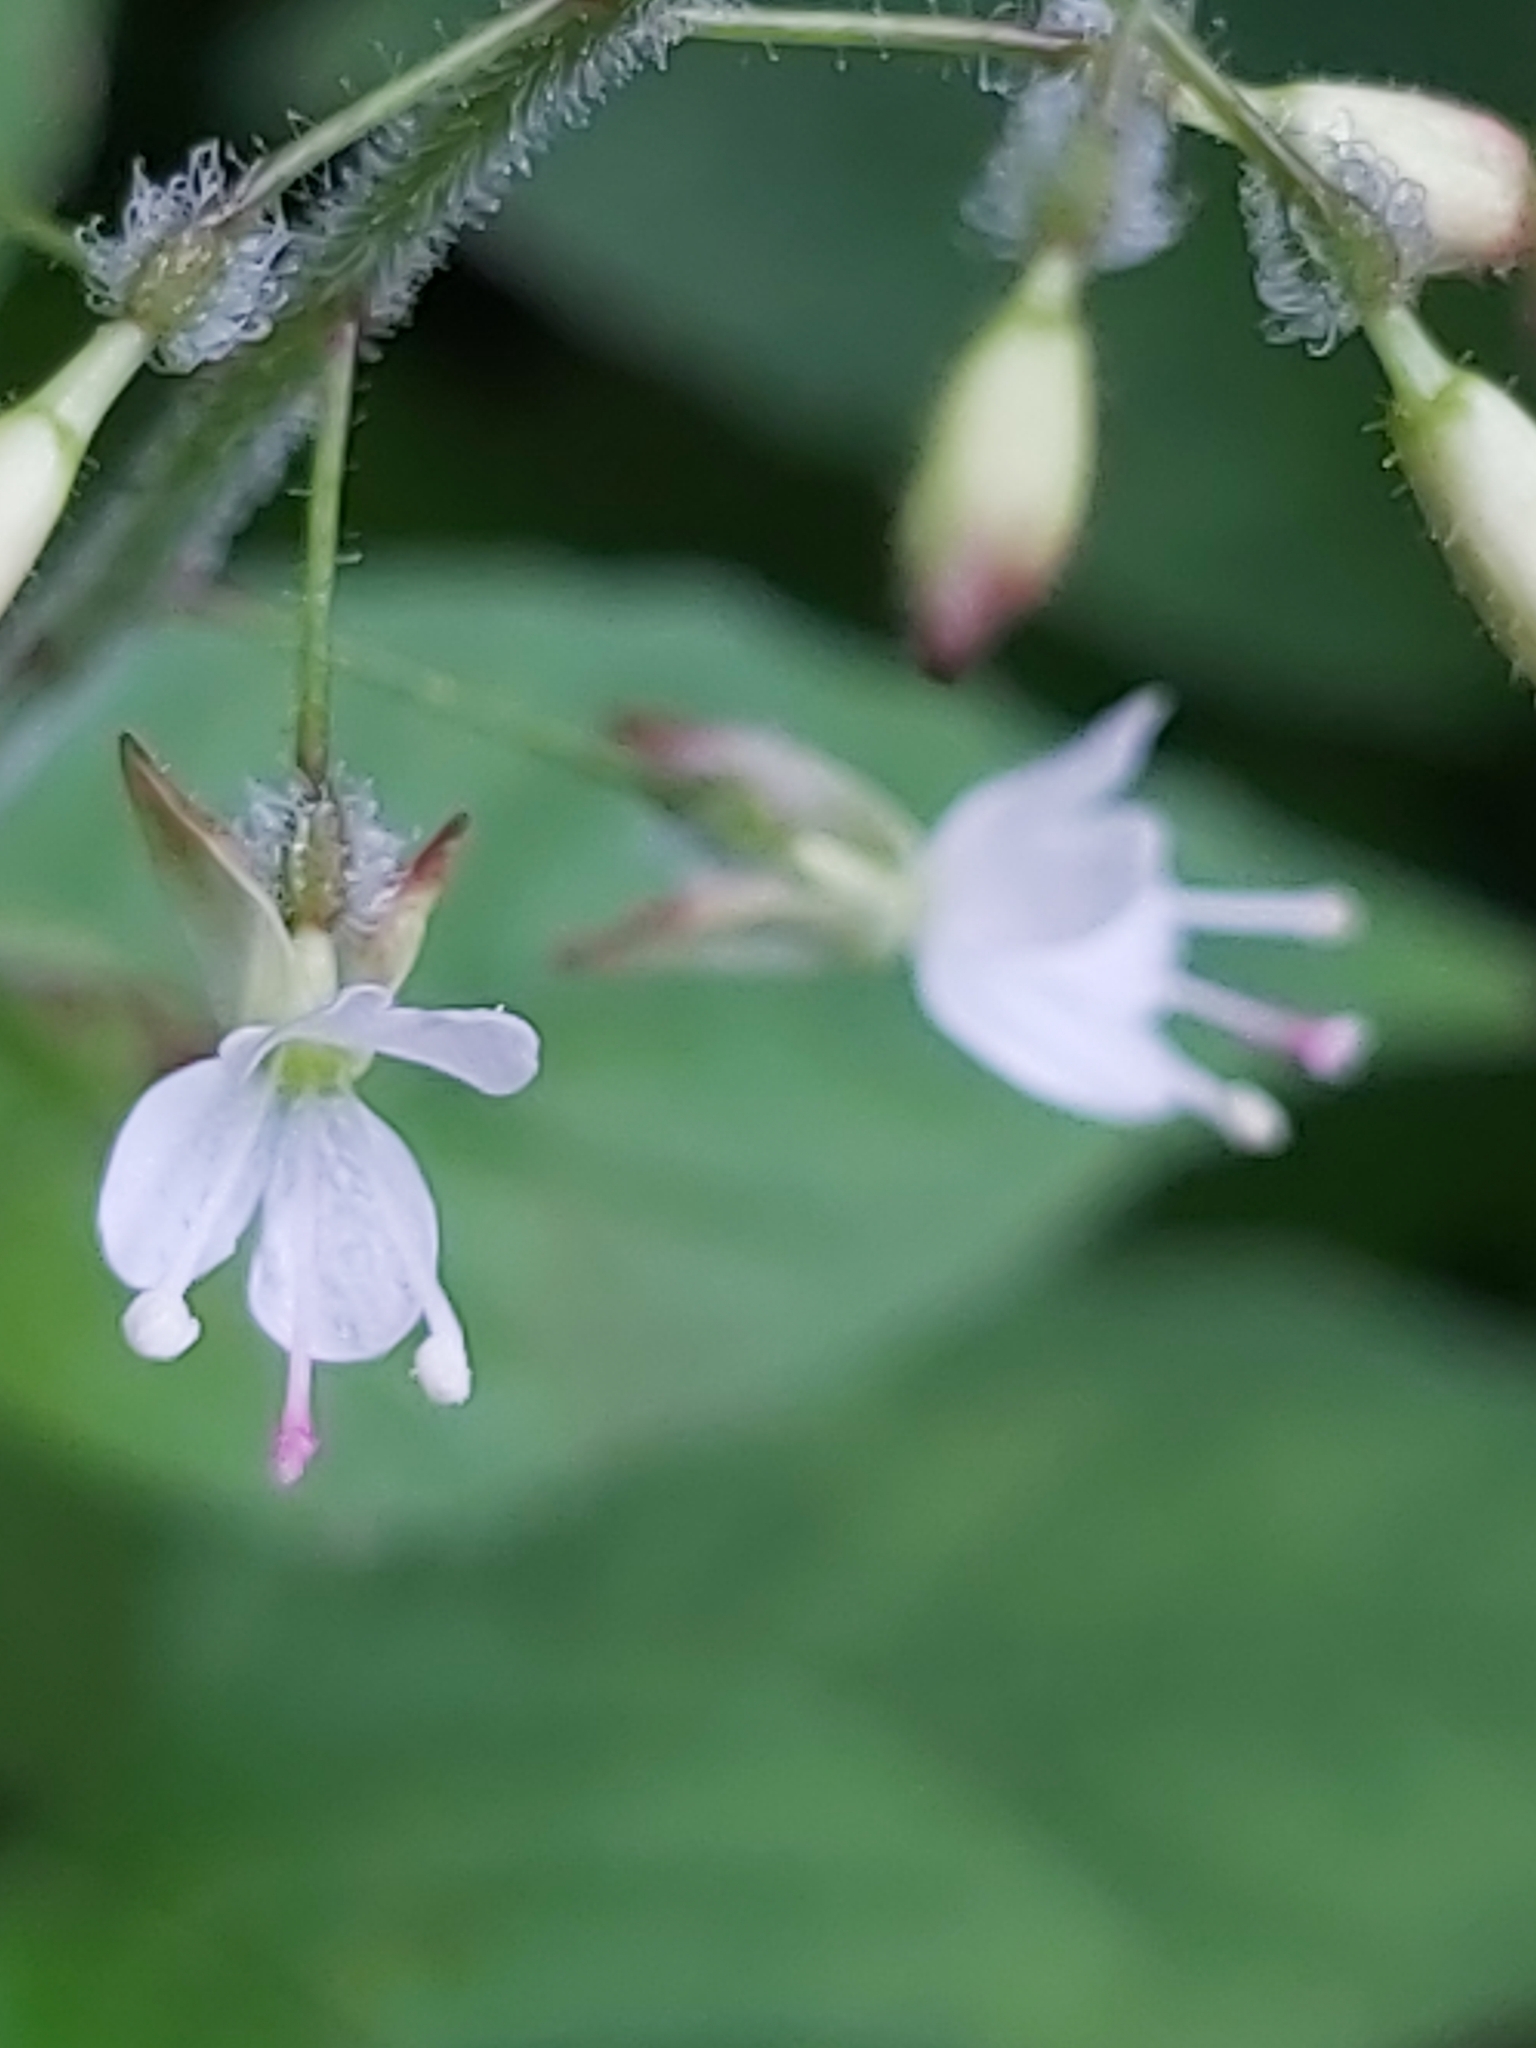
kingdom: Plantae
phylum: Tracheophyta
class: Magnoliopsida
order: Myrtales
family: Onagraceae
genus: Circaea
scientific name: Circaea lutetiana
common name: Enchanter's-nightshade
